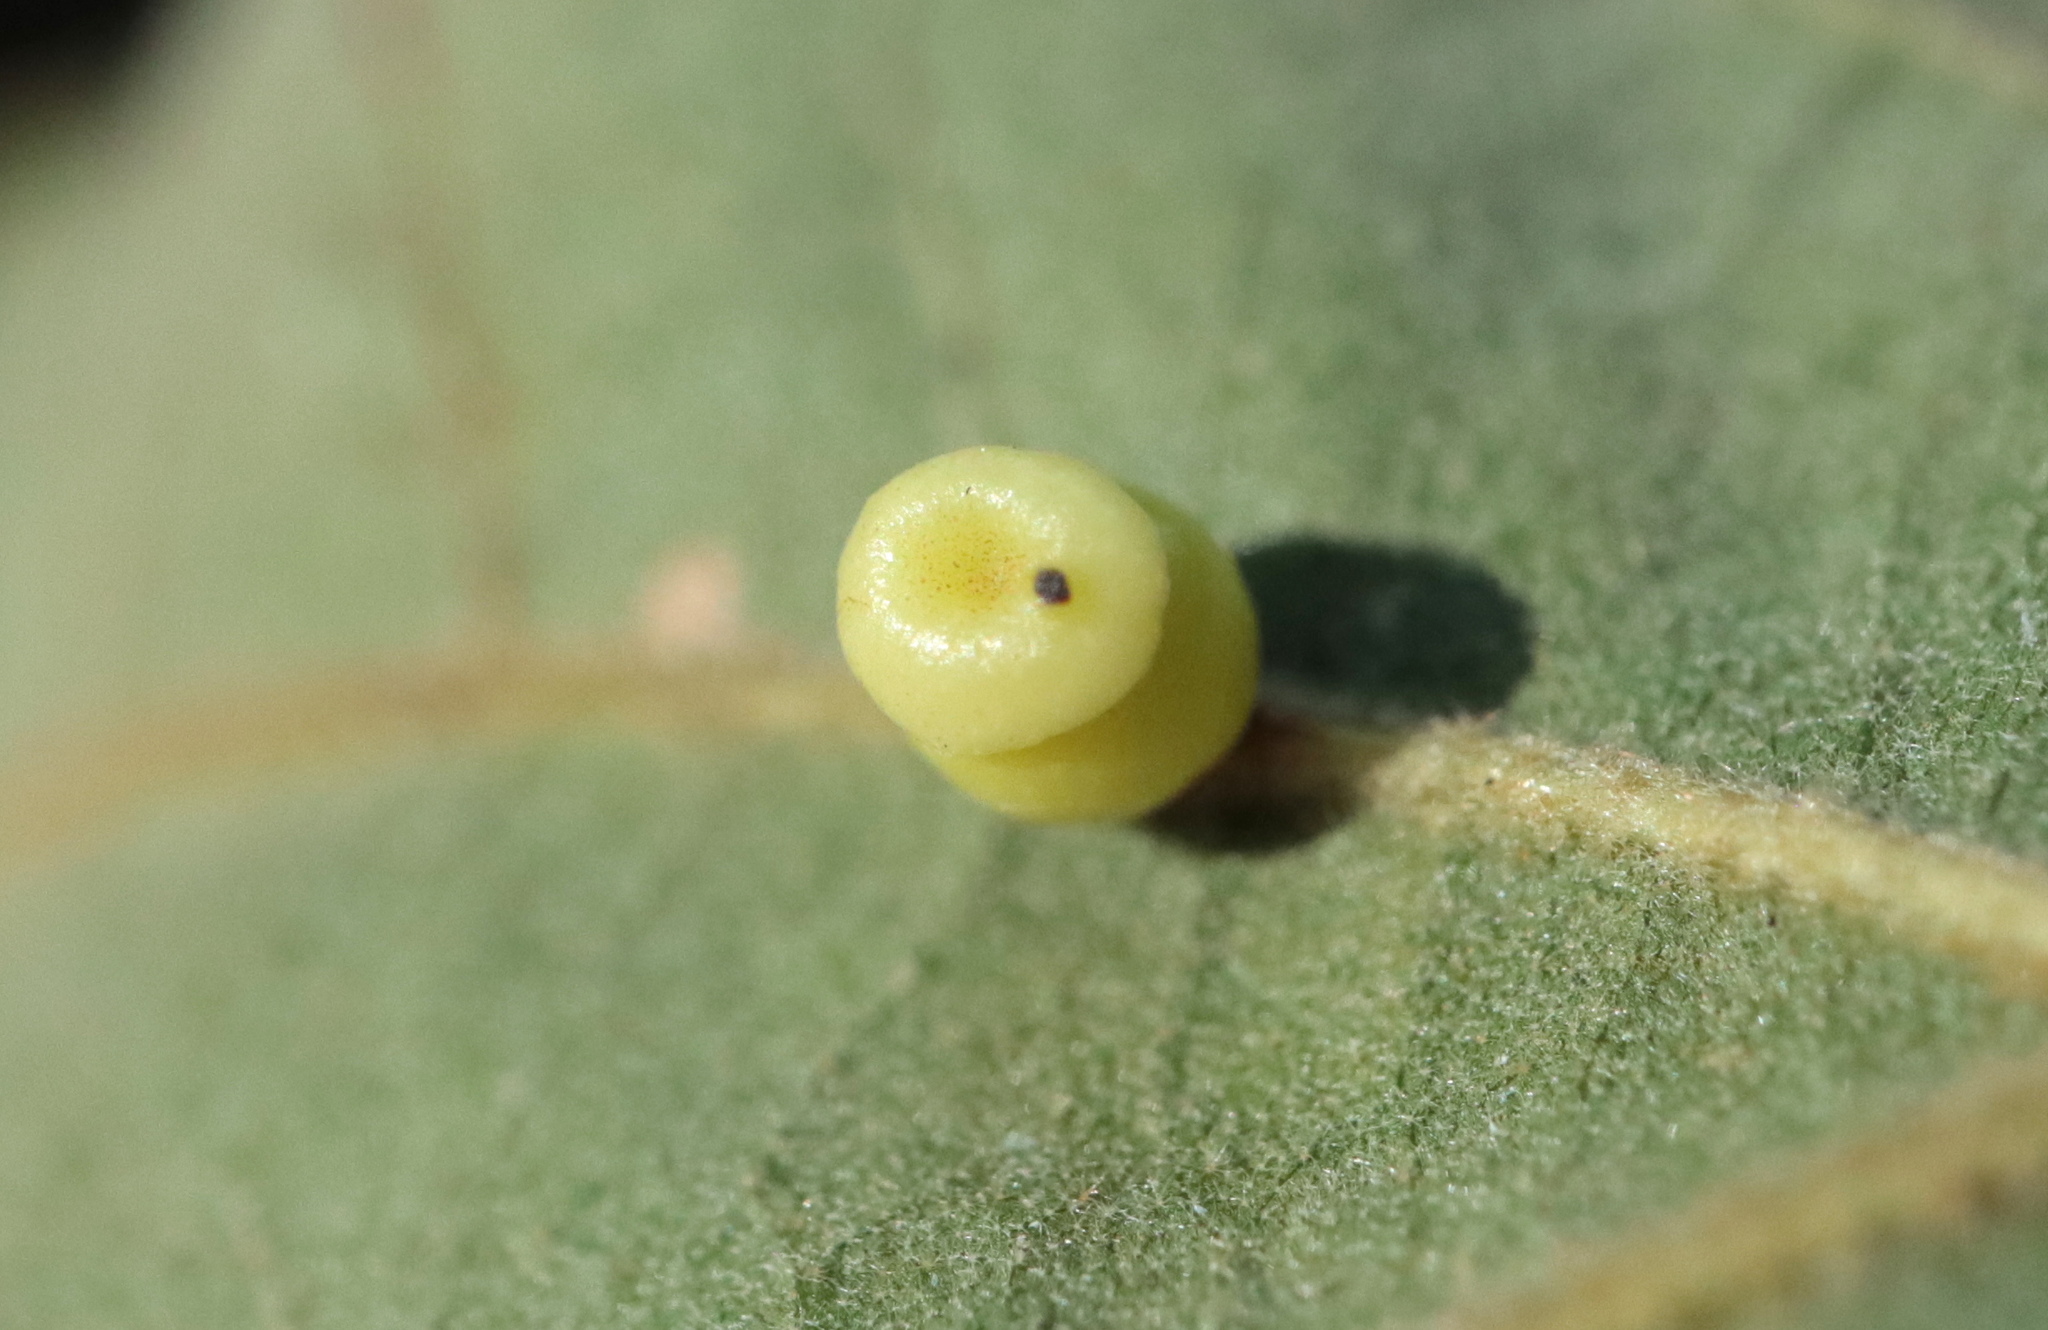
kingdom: Animalia
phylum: Arthropoda
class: Insecta
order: Hymenoptera
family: Cynipidae
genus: Kokkocynips
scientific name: Kokkocynips rileyi
